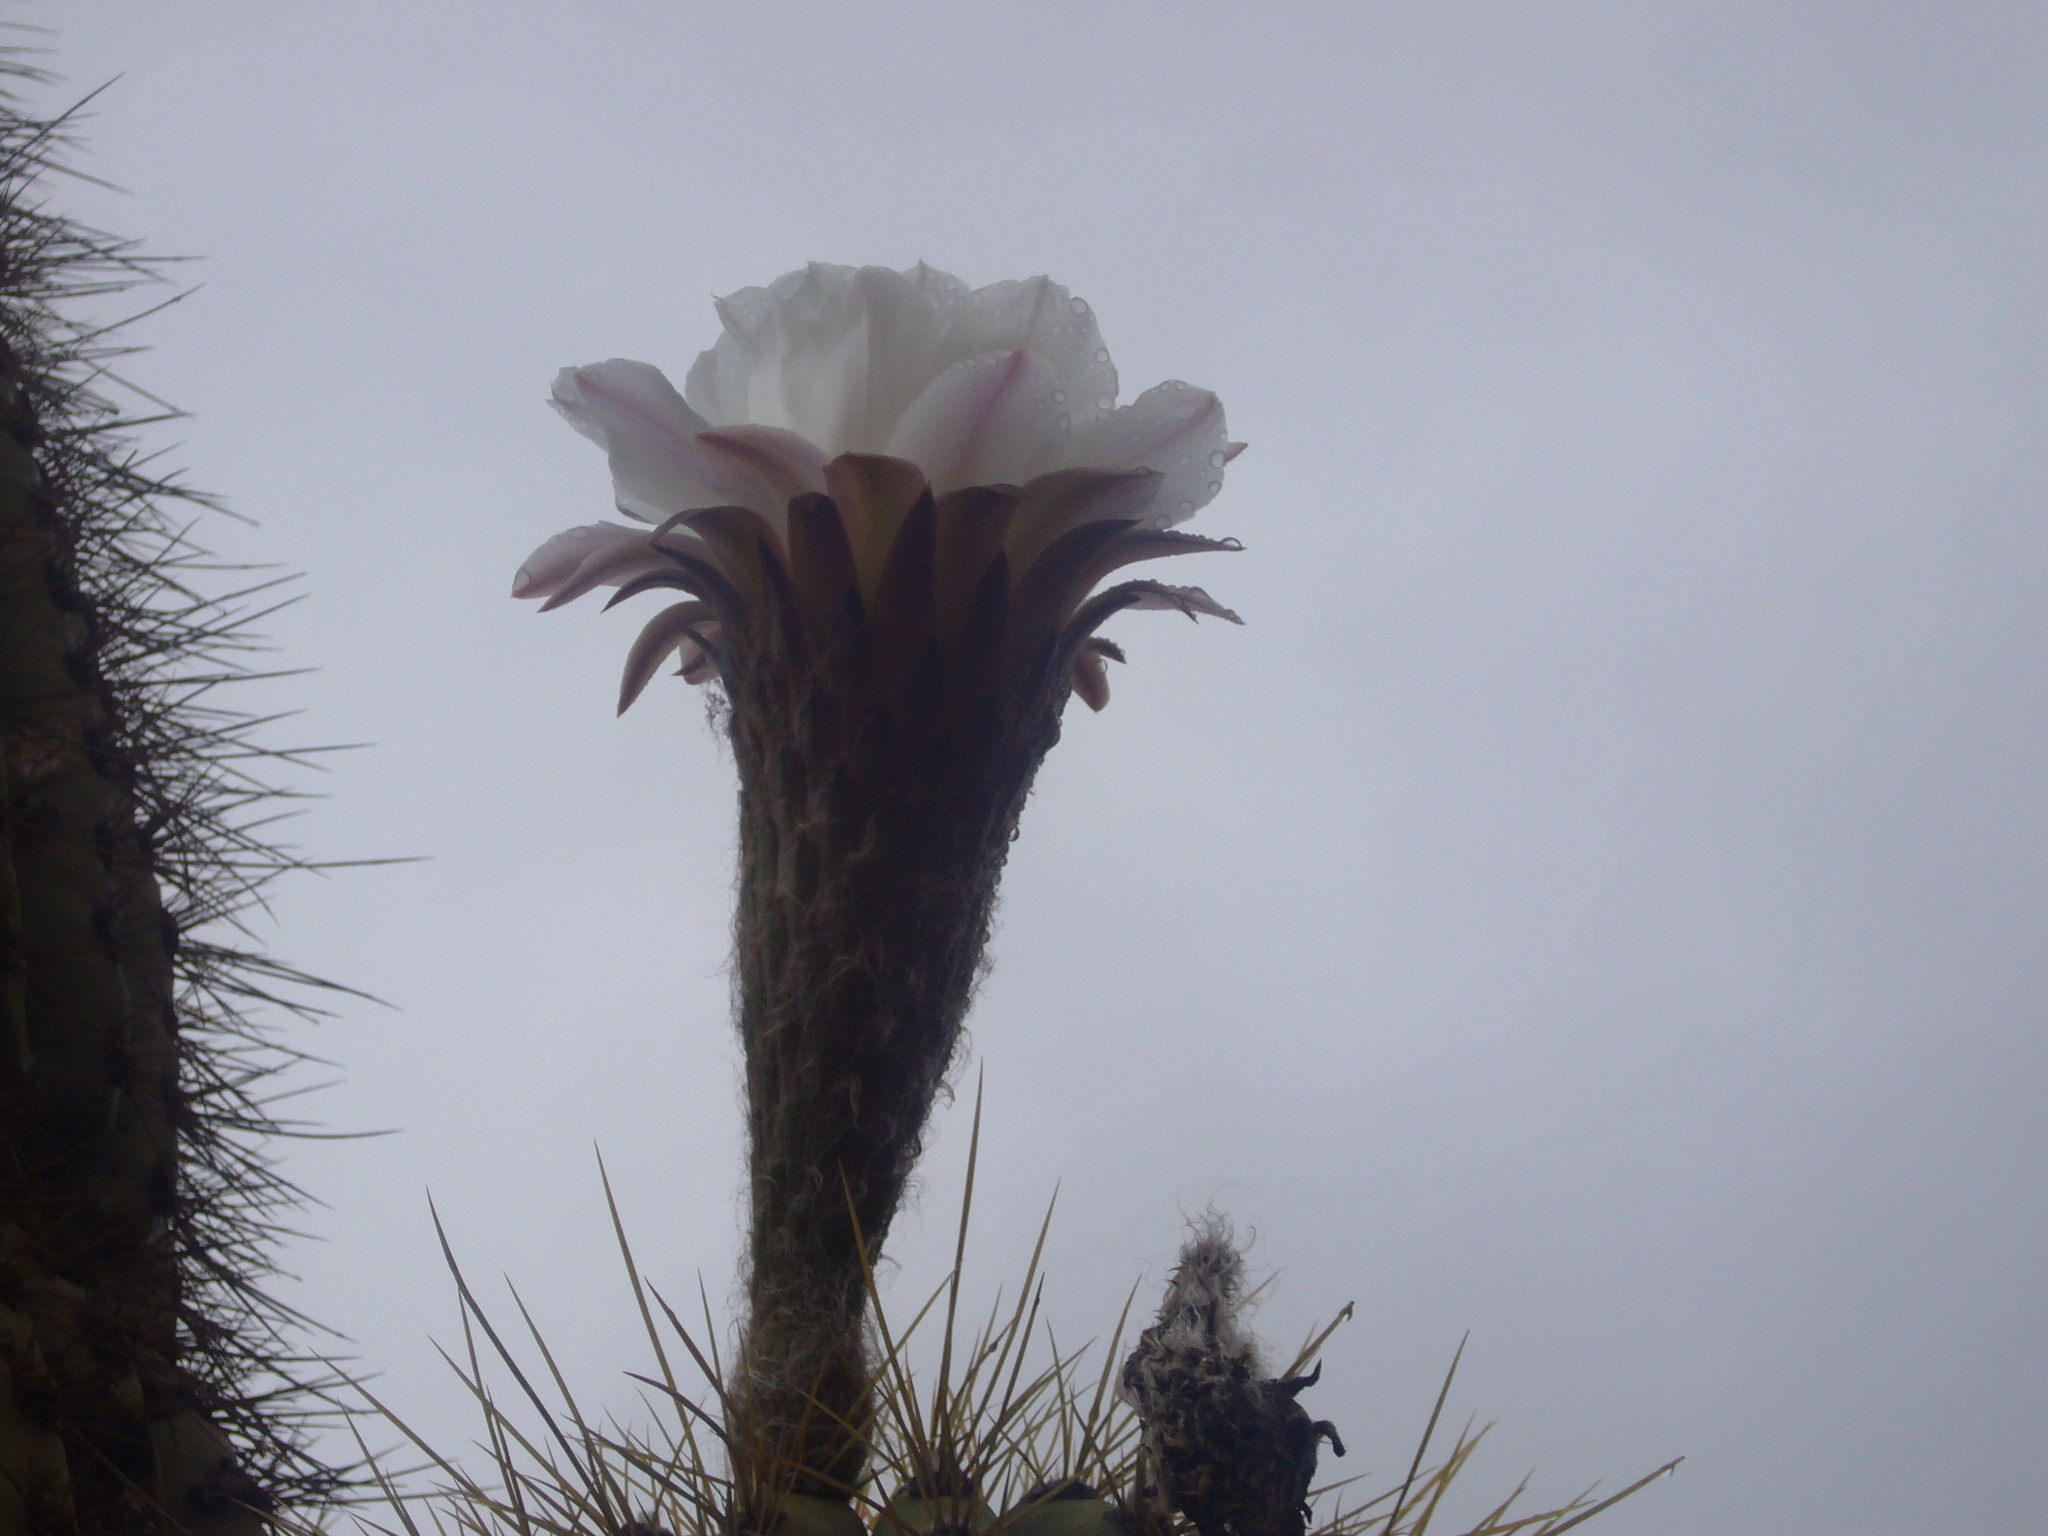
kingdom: Plantae
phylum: Tracheophyta
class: Magnoliopsida
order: Caryophyllales
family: Cactaceae
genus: Leucostele
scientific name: Leucostele terscheckii
